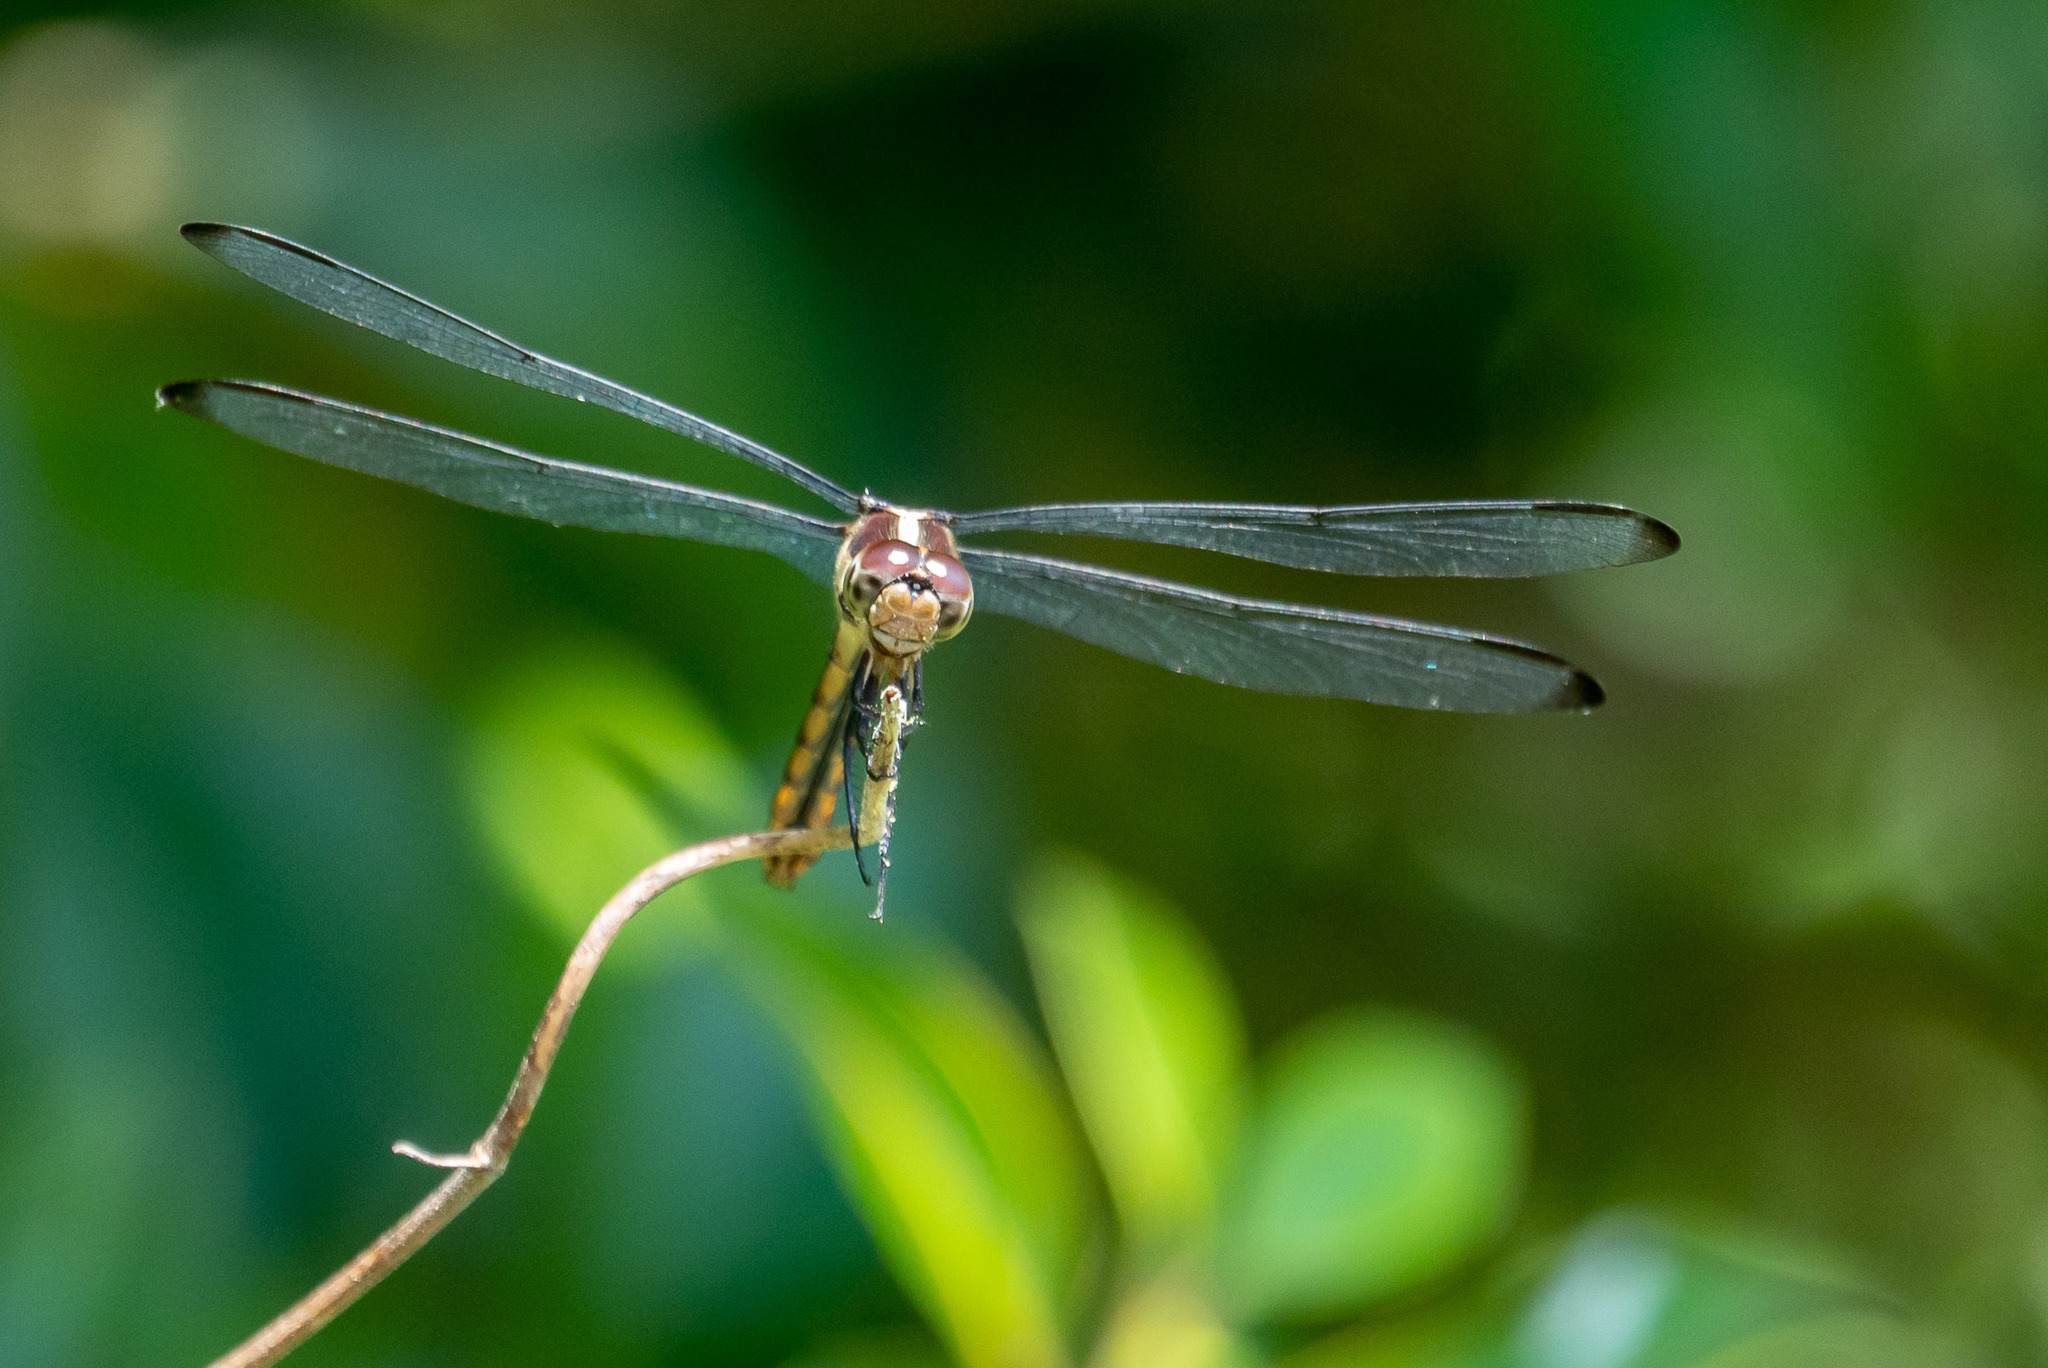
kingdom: Animalia
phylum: Arthropoda
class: Insecta
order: Odonata
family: Libellulidae
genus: Libellula
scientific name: Libellula incesta
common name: Slaty skimmer
